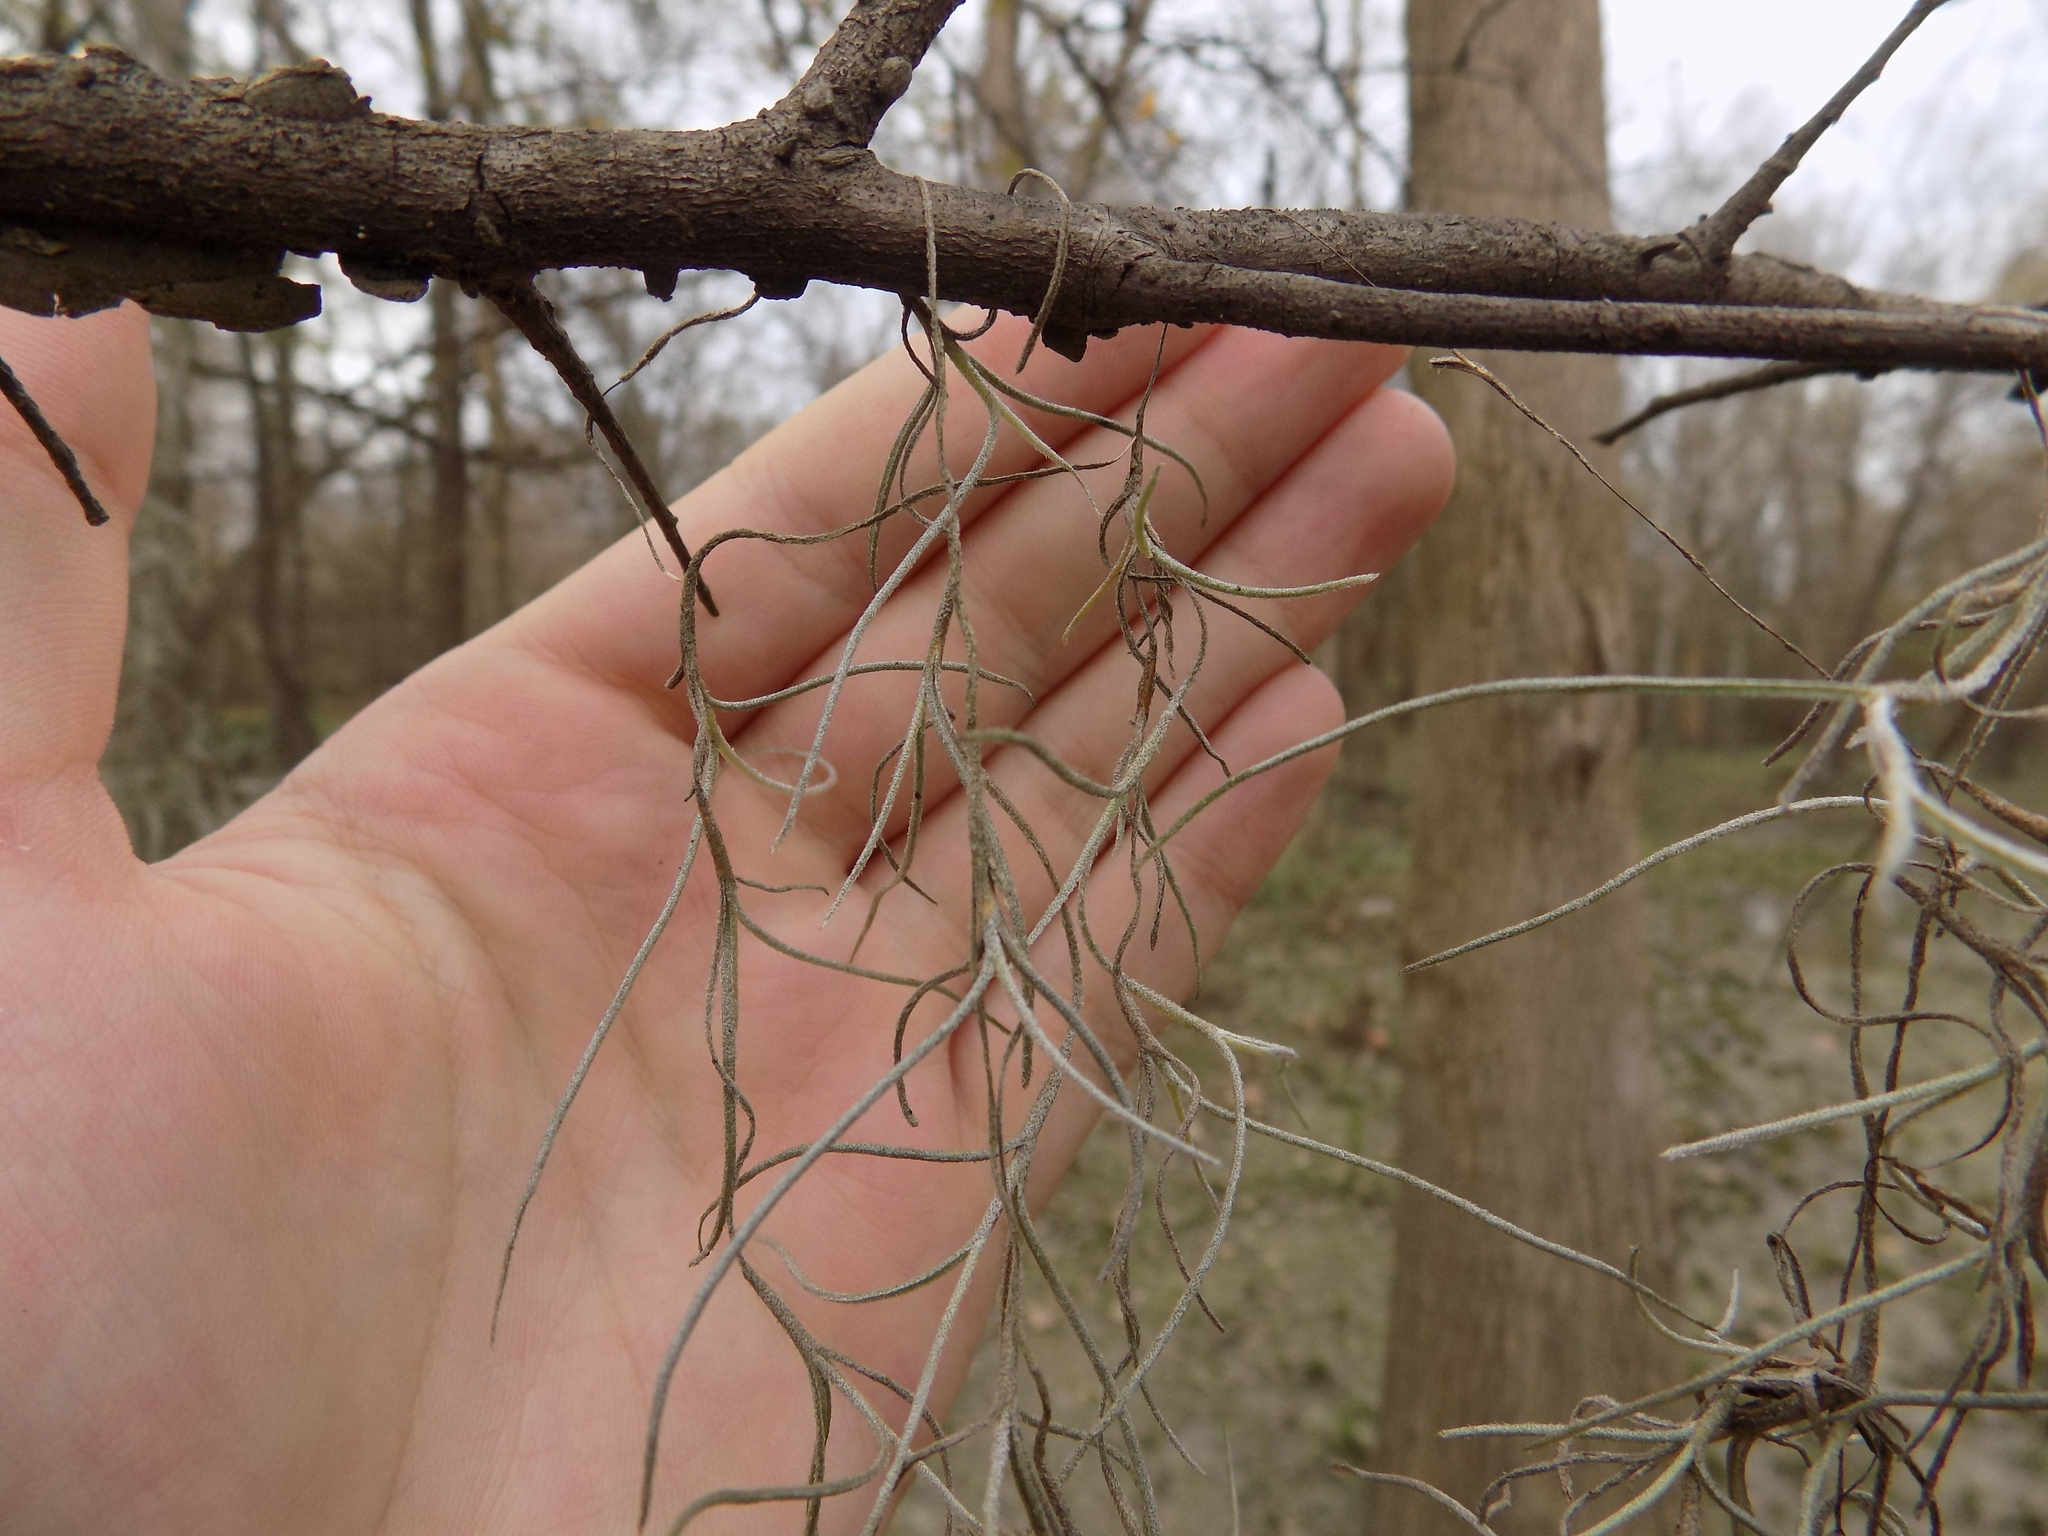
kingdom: Plantae
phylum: Tracheophyta
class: Liliopsida
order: Poales
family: Bromeliaceae
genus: Tillandsia
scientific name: Tillandsia usneoides
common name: Spanish moss
